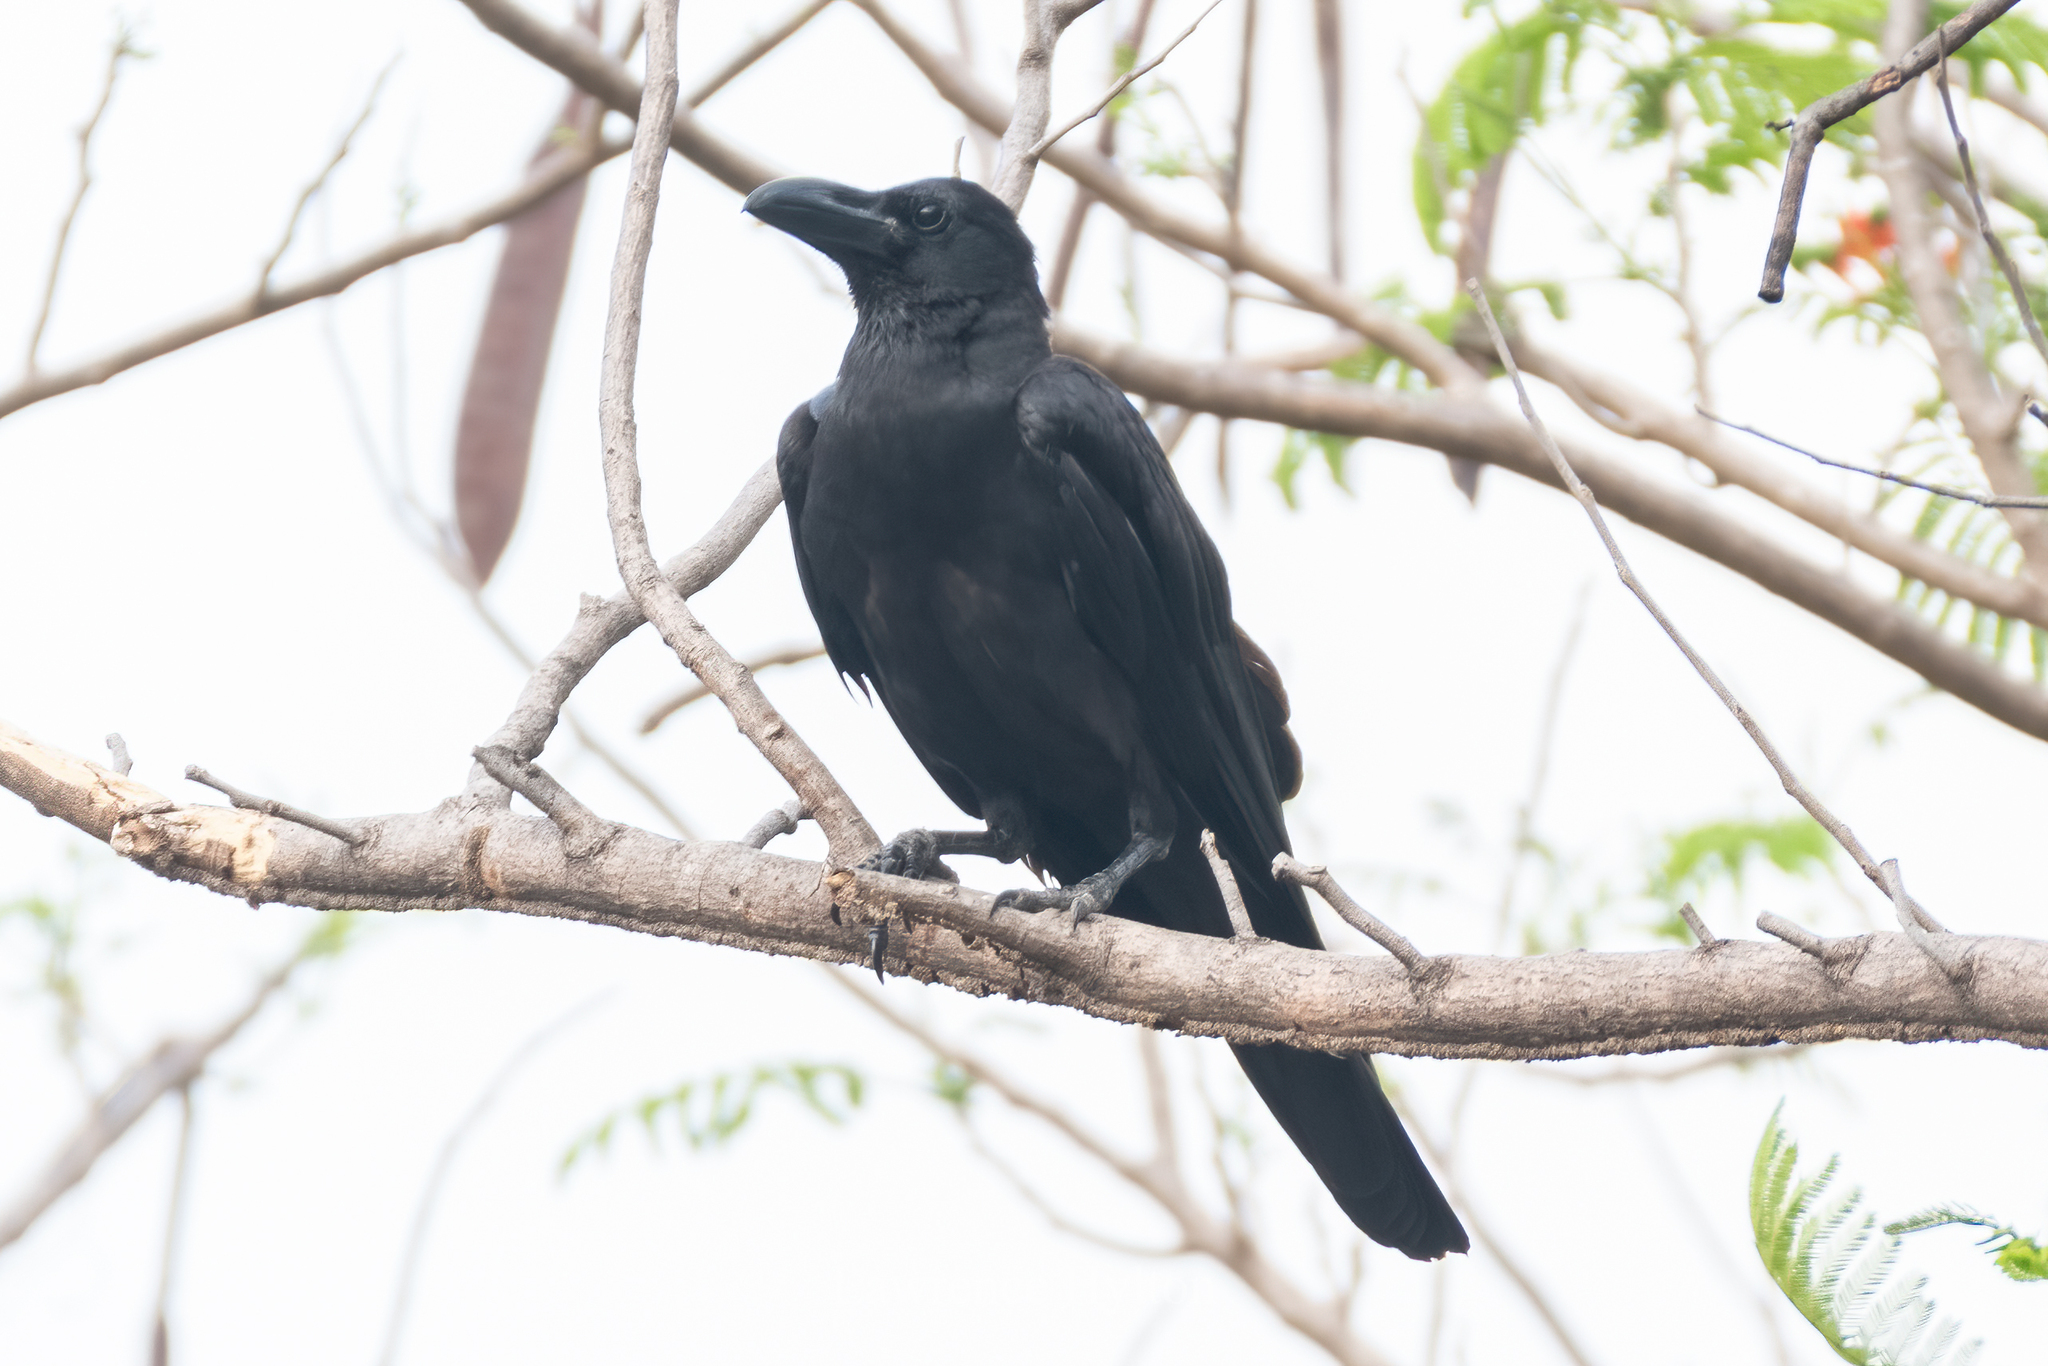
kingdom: Animalia
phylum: Chordata
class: Aves
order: Passeriformes
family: Corvidae
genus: Corvus
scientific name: Corvus macrorhynchos
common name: Large-billed crow
